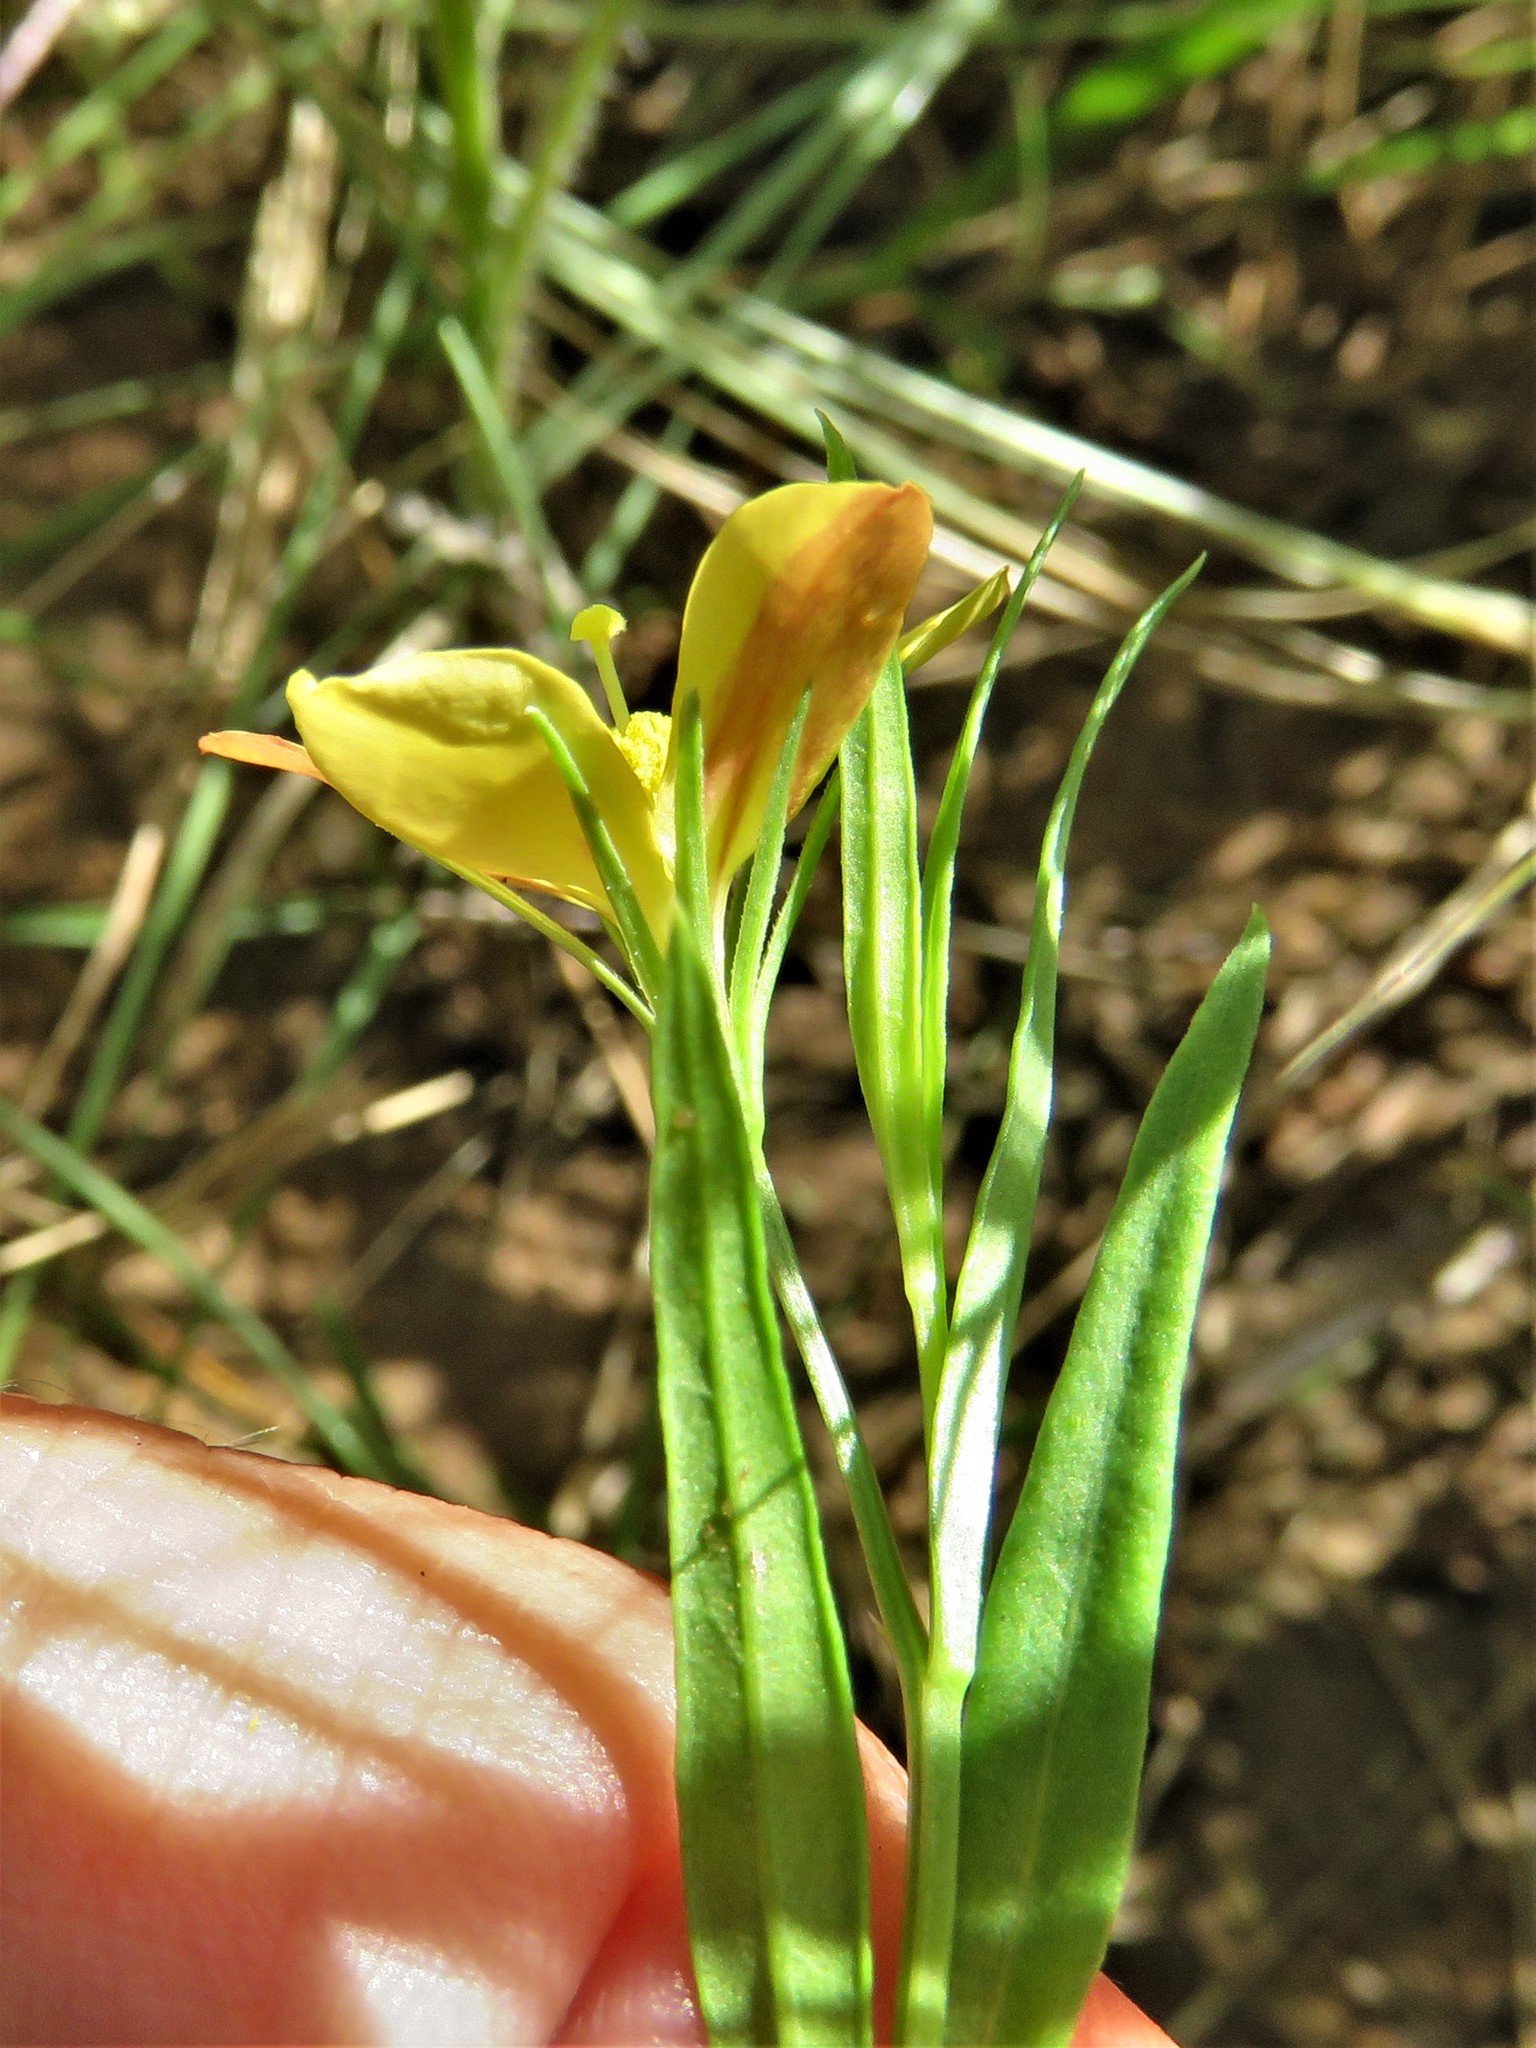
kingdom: Plantae
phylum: Tracheophyta
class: Magnoliopsida
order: Lamiales
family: Oleaceae
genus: Menodora
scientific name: Menodora heterophylla
